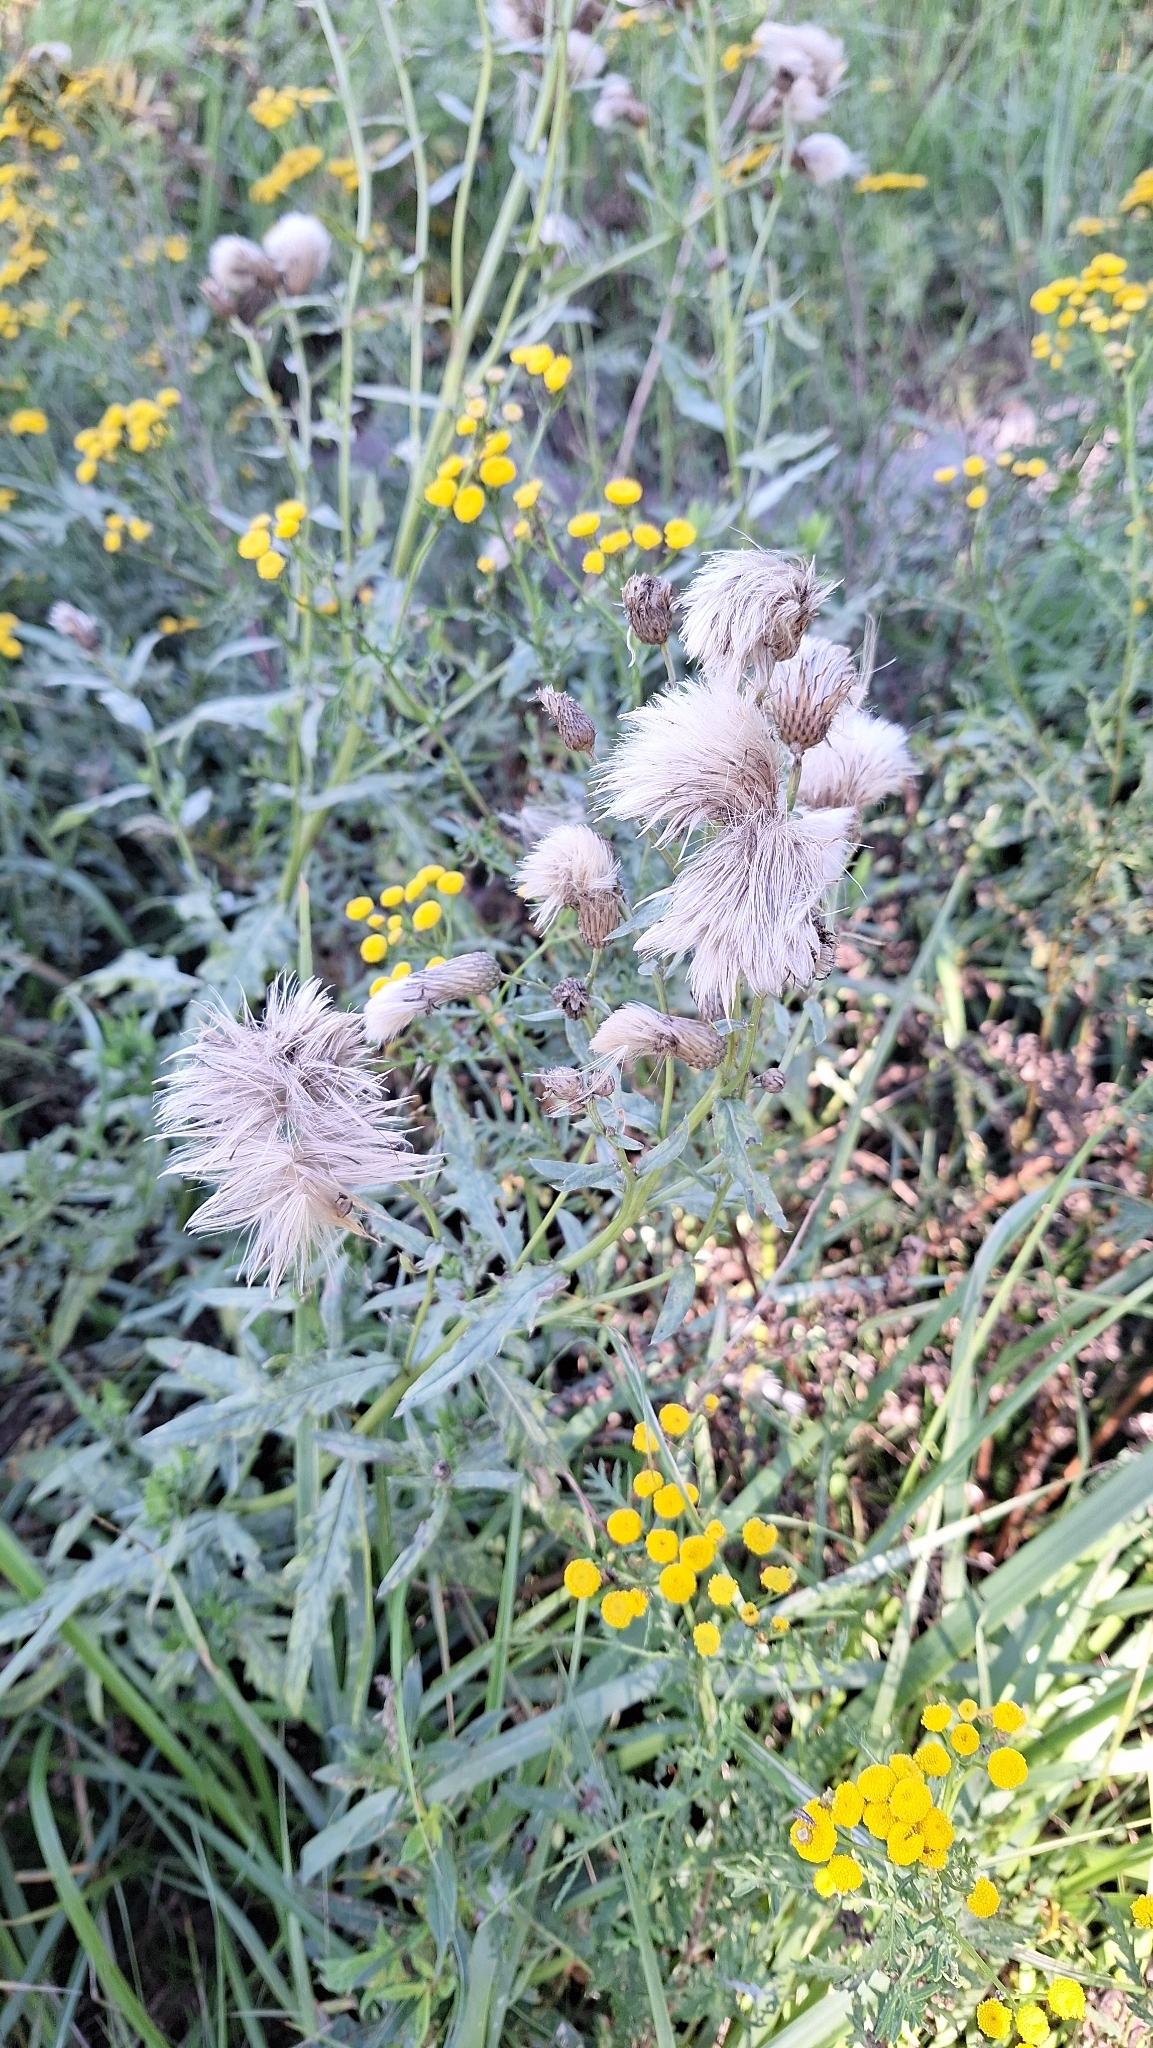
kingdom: Plantae
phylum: Tracheophyta
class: Magnoliopsida
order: Asterales
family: Asteraceae
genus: Cirsium
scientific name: Cirsium arvense
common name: Creeping thistle
